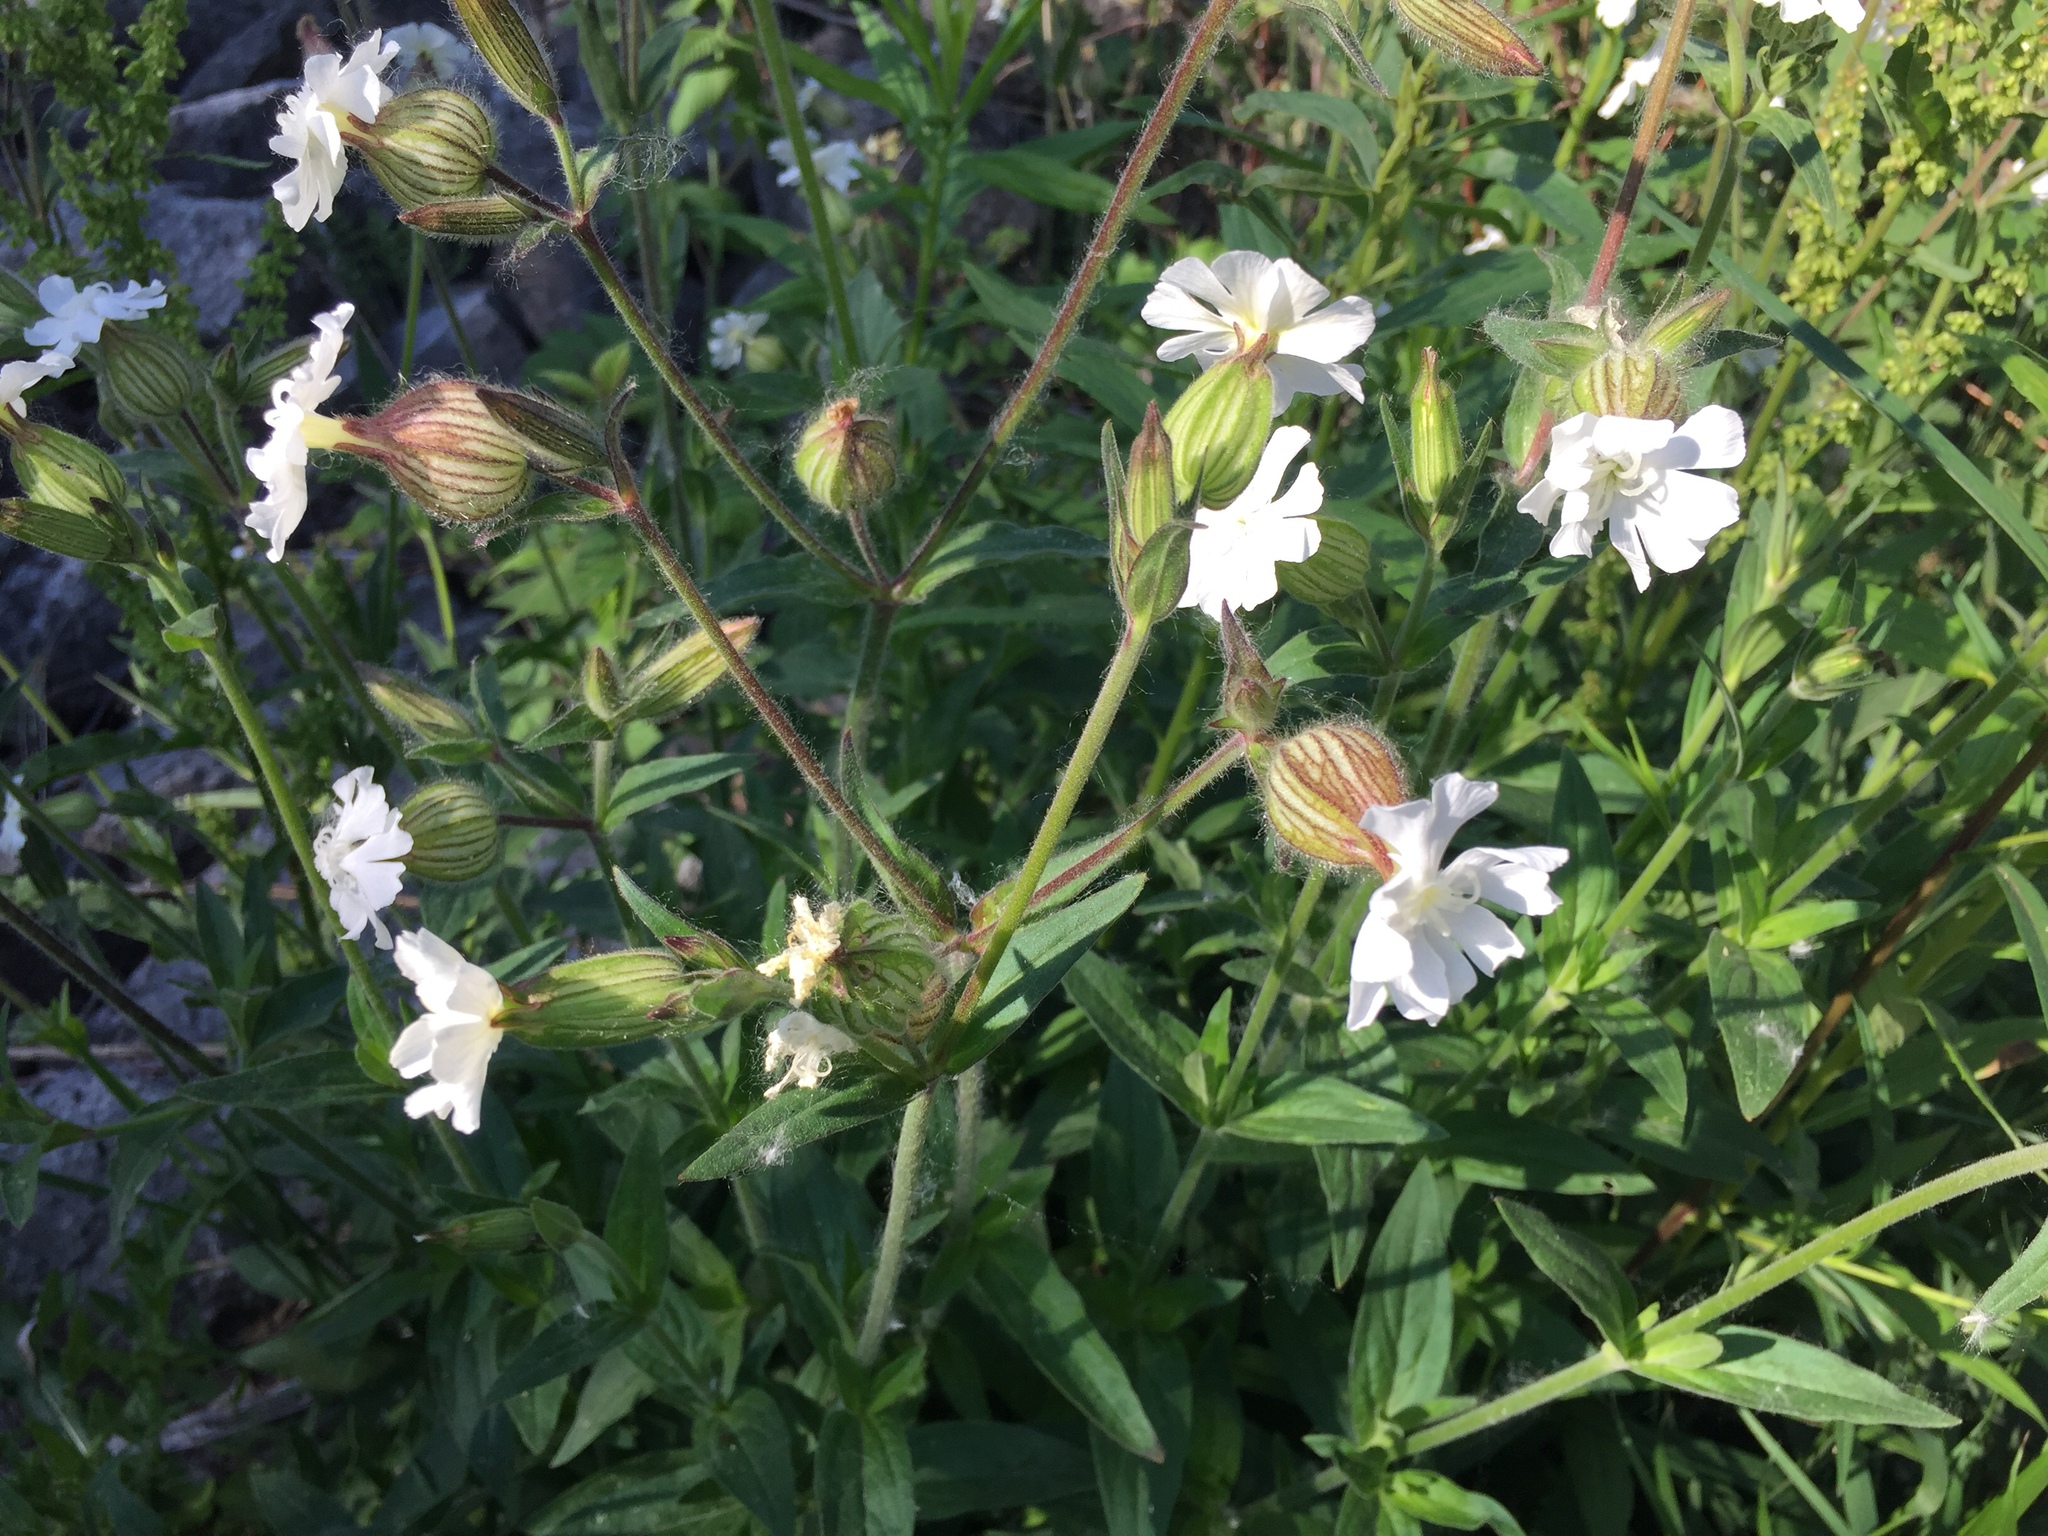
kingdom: Plantae
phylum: Tracheophyta
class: Magnoliopsida
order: Caryophyllales
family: Caryophyllaceae
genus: Silene
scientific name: Silene latifolia
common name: White campion
